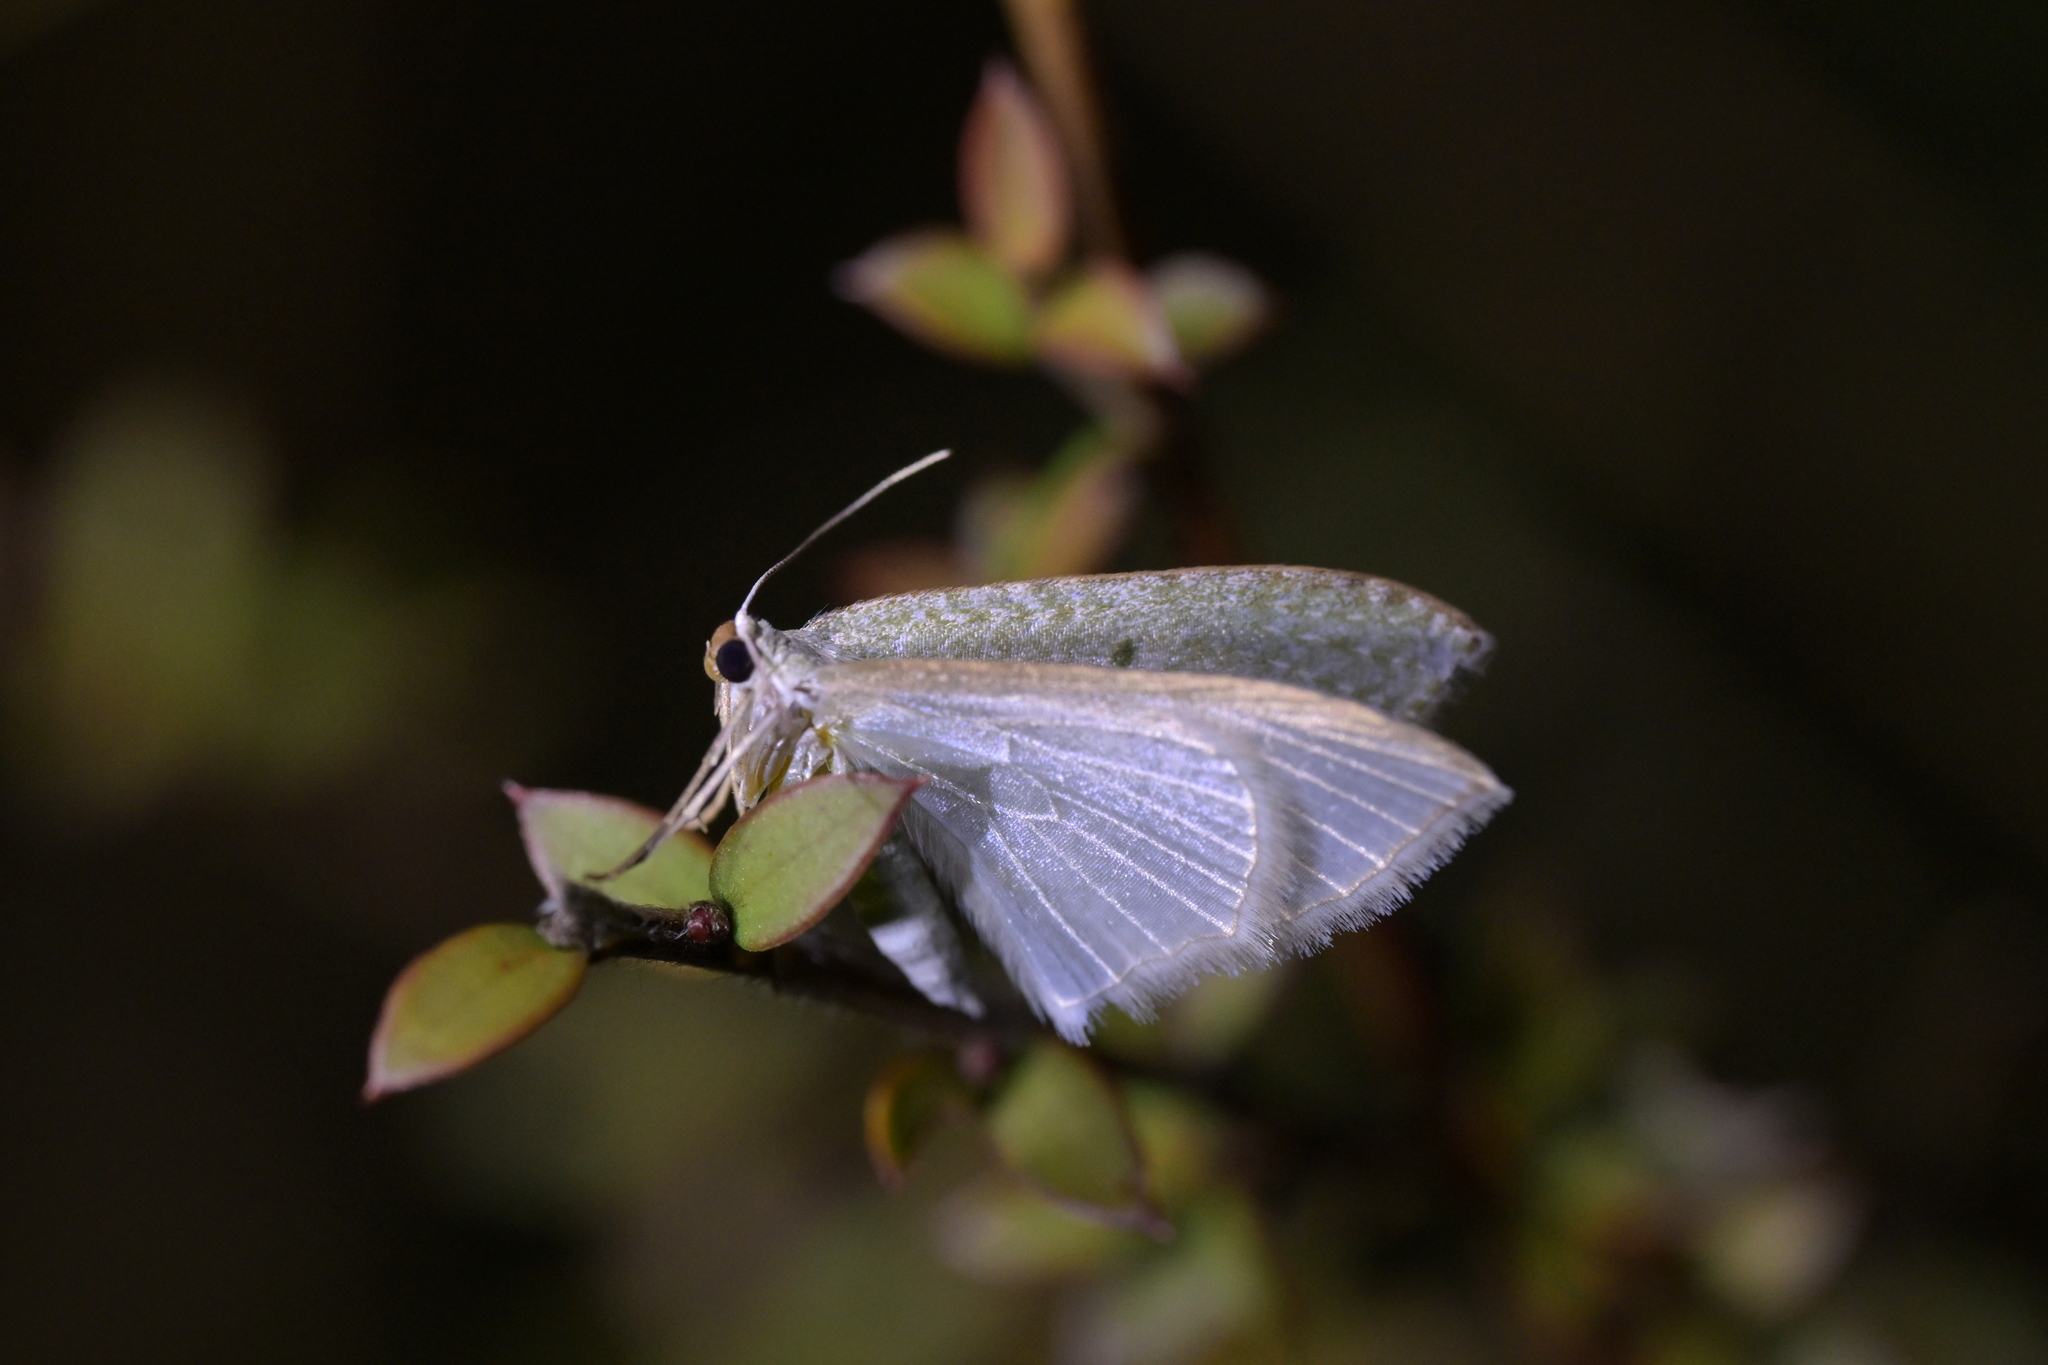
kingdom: Animalia
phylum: Arthropoda
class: Insecta
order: Lepidoptera
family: Geometridae
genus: Poecilasthena
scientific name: Poecilasthena pulchraria
